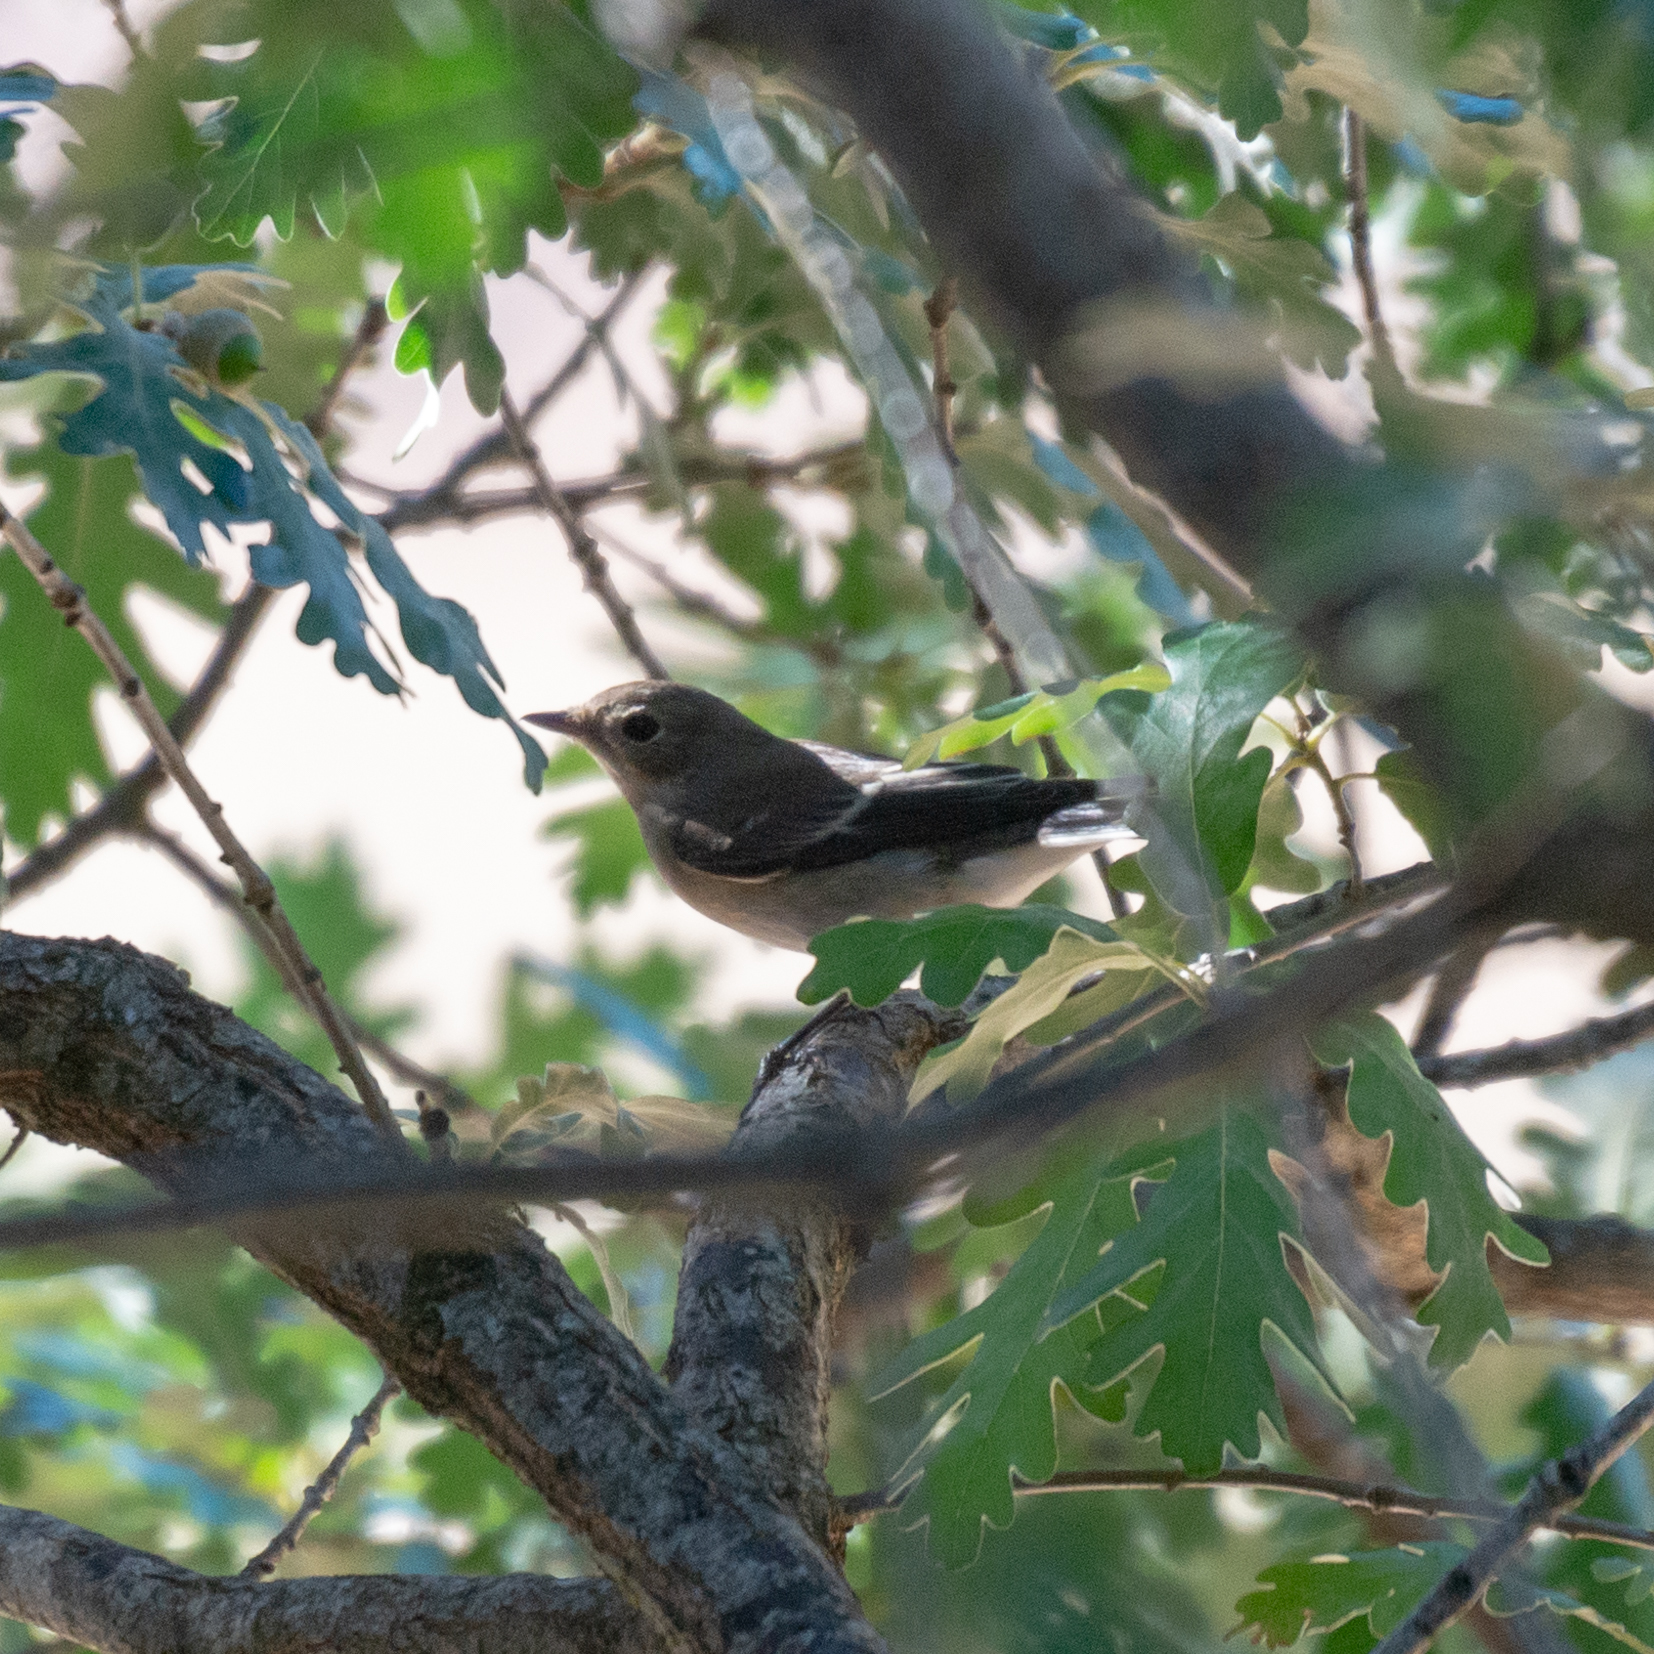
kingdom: Animalia
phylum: Chordata
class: Aves
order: Passeriformes
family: Muscicapidae
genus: Ficedula
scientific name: Ficedula hypoleuca
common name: European pied flycatcher
